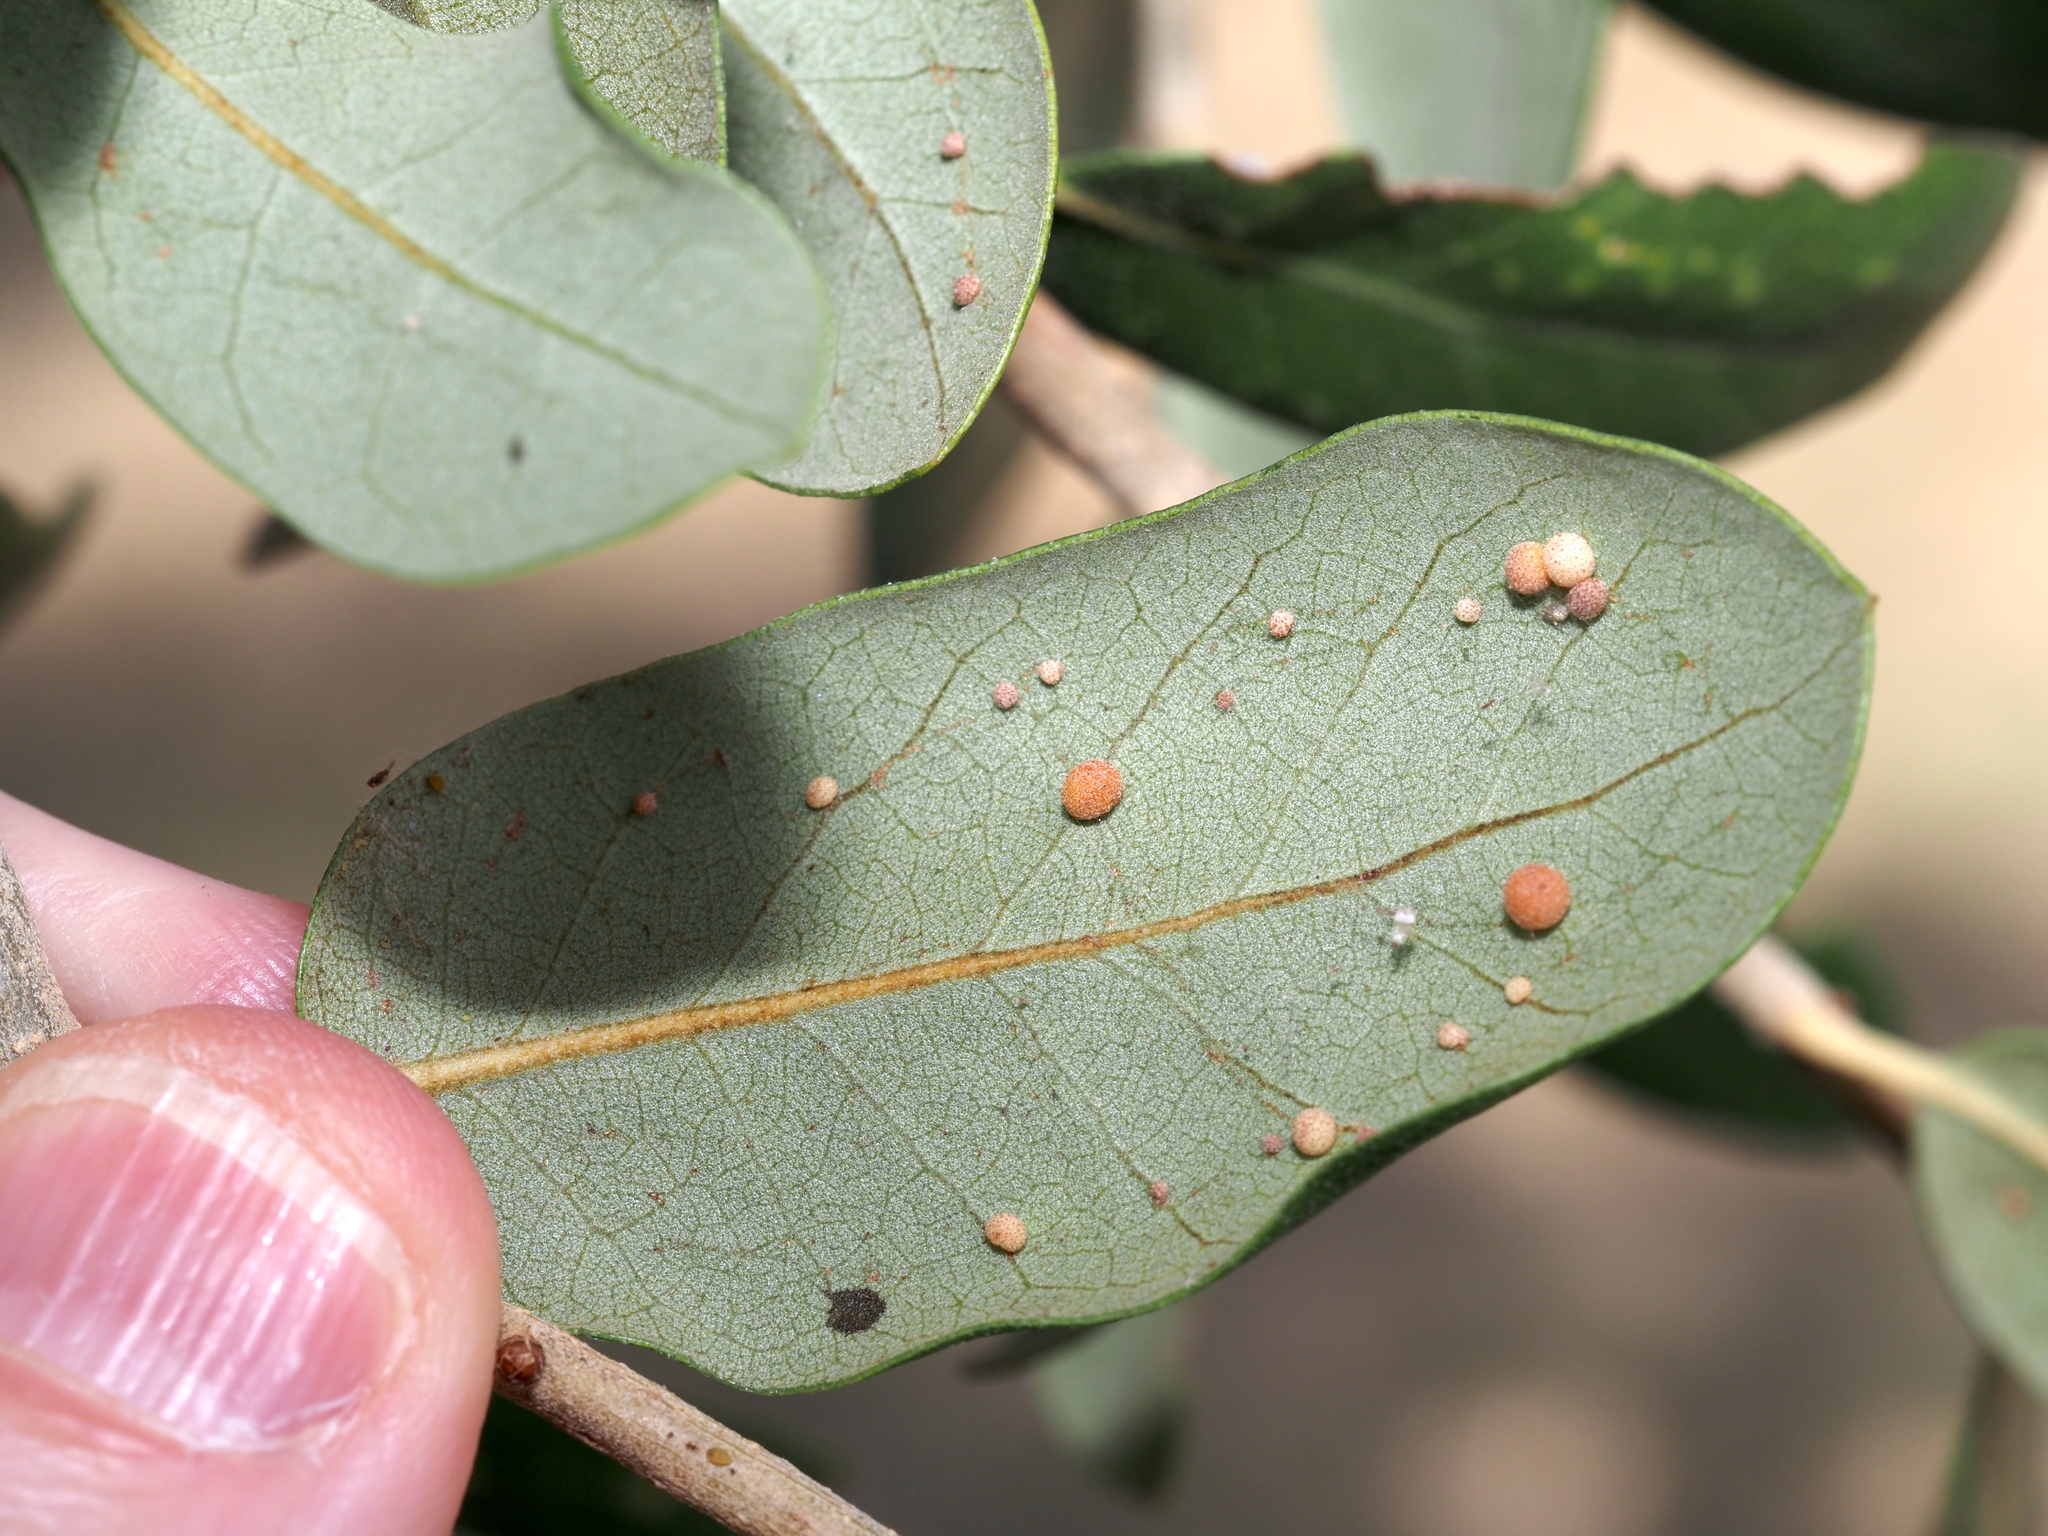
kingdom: Animalia
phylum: Arthropoda
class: Insecta
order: Hymenoptera
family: Cynipidae
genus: Belonocnema
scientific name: Belonocnema kinseyi
